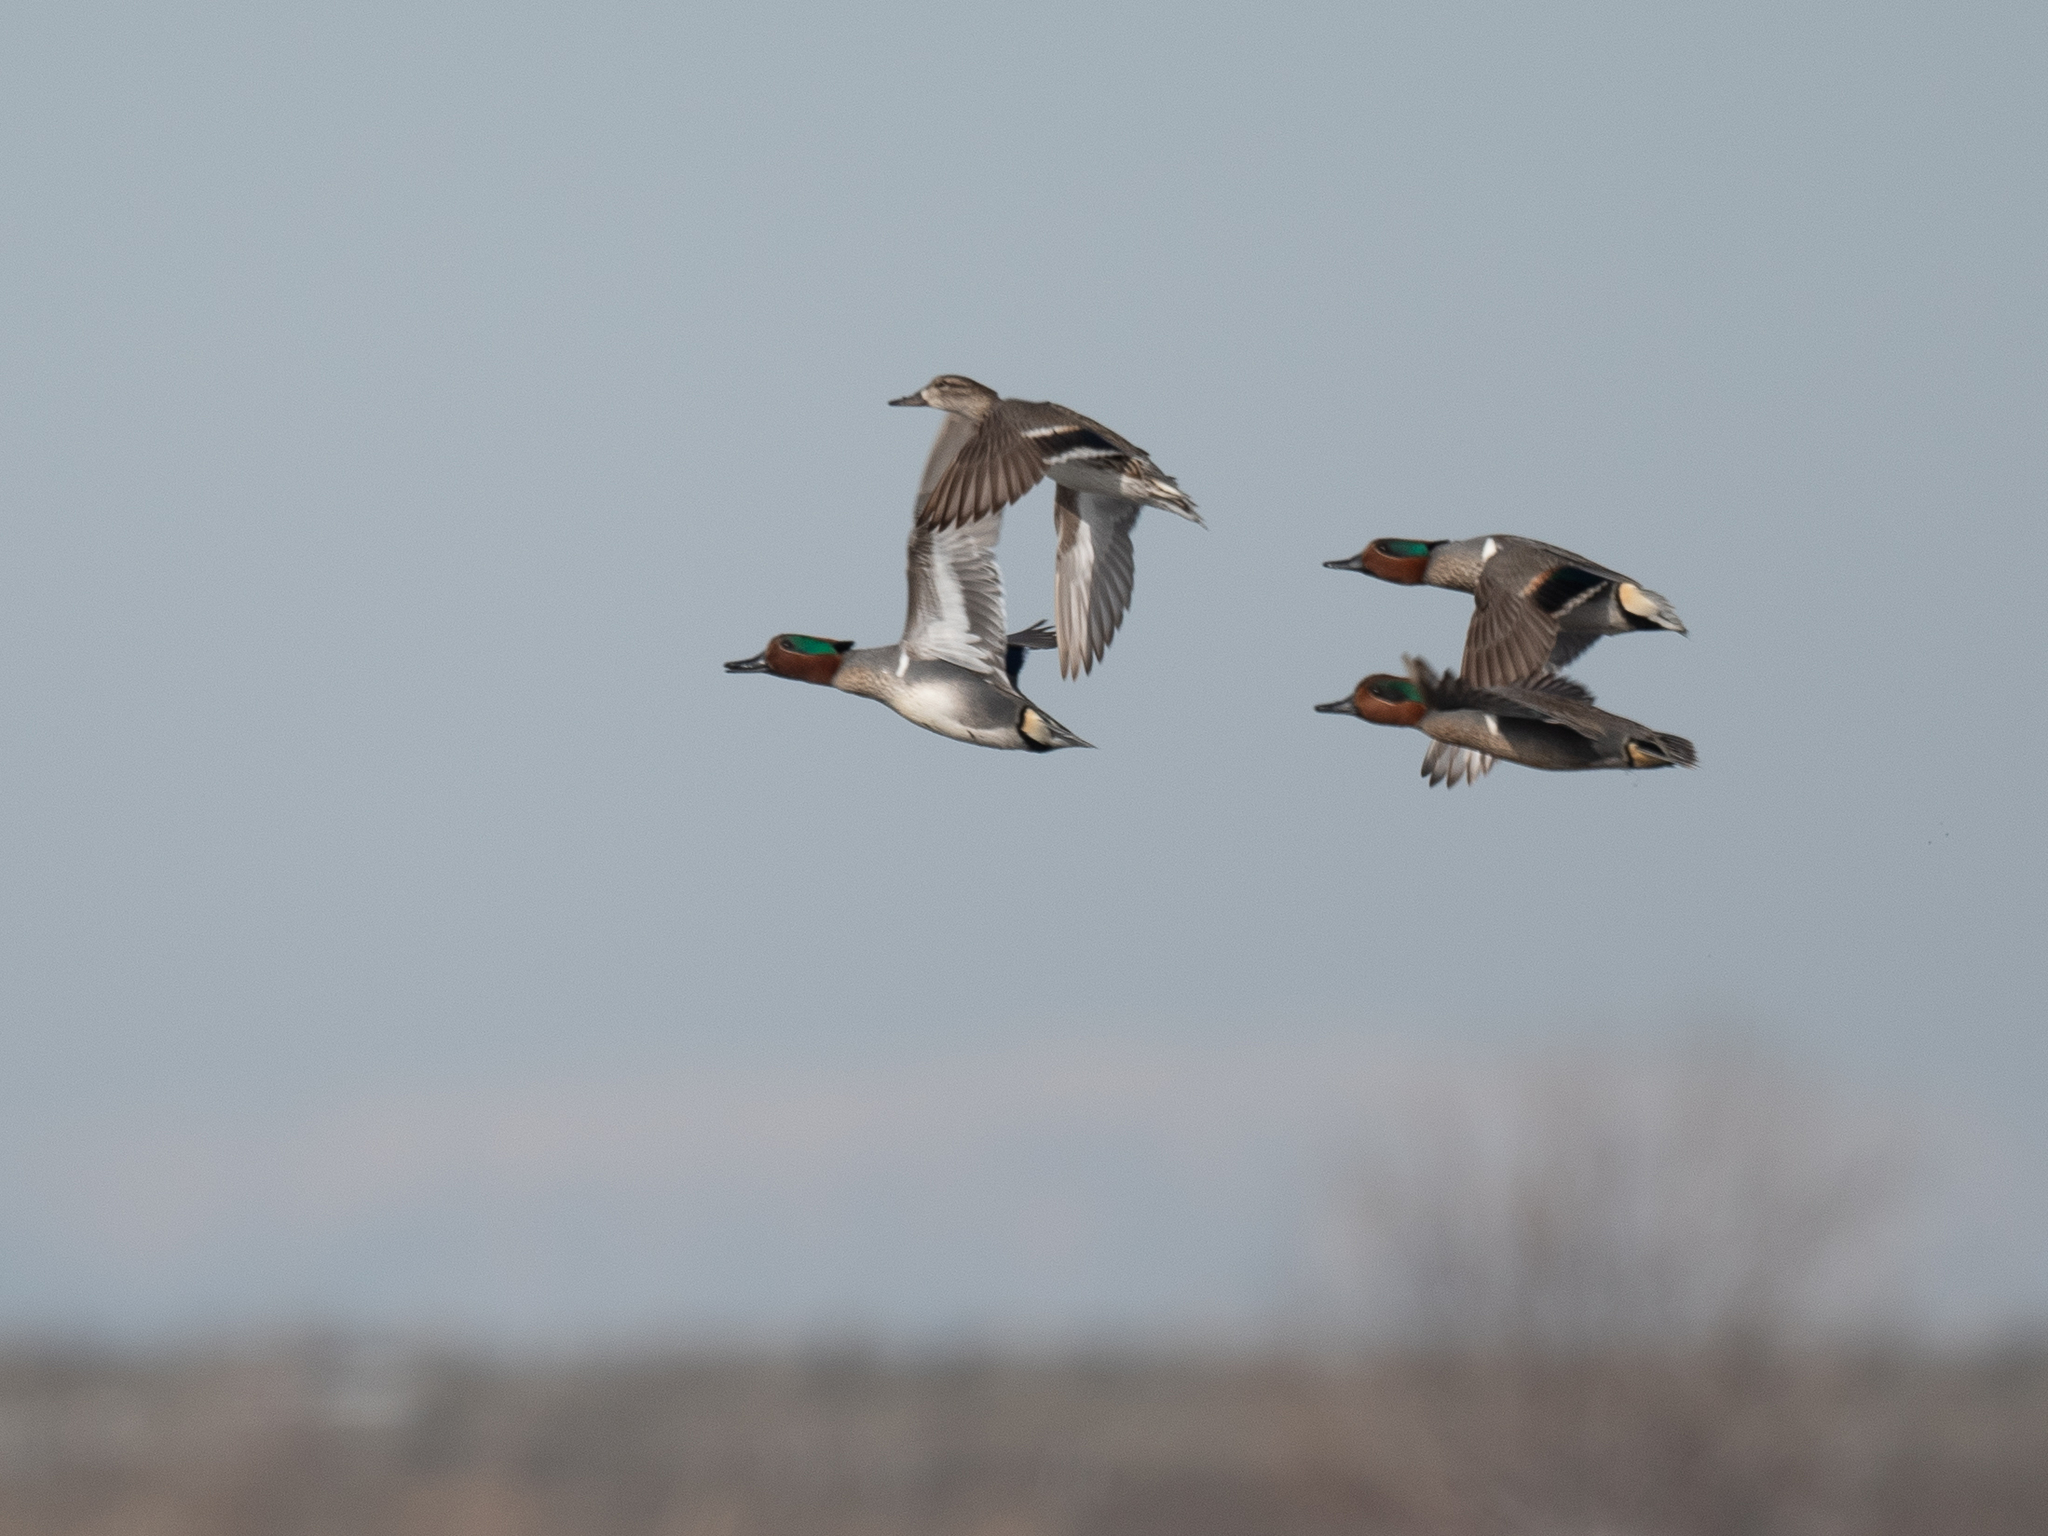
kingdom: Animalia
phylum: Chordata
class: Aves
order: Anseriformes
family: Anatidae
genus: Anas
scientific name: Anas crecca
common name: Eurasian teal
